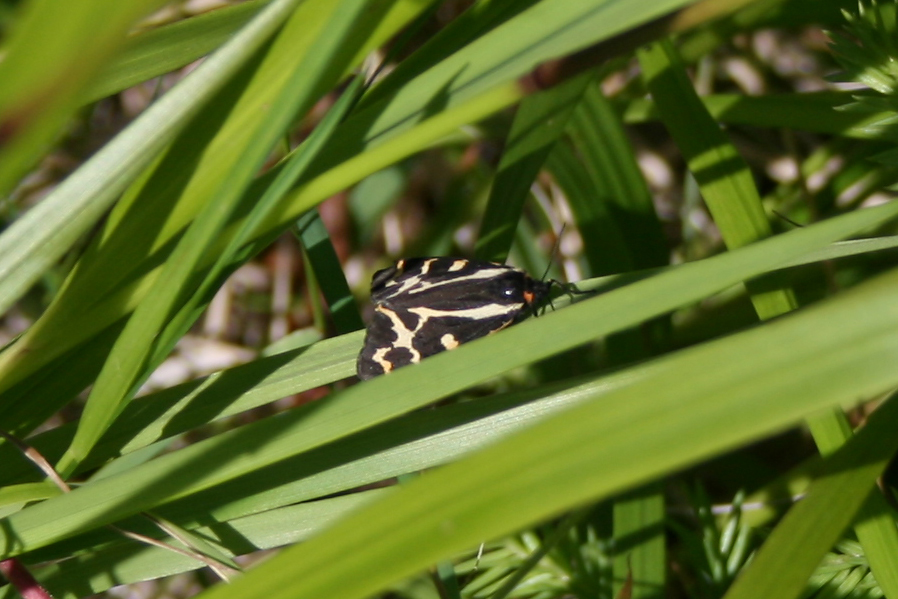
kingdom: Animalia
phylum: Arthropoda
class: Insecta
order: Lepidoptera
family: Erebidae
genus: Parasemia
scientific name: Parasemia plantaginis
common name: Wood tiger
